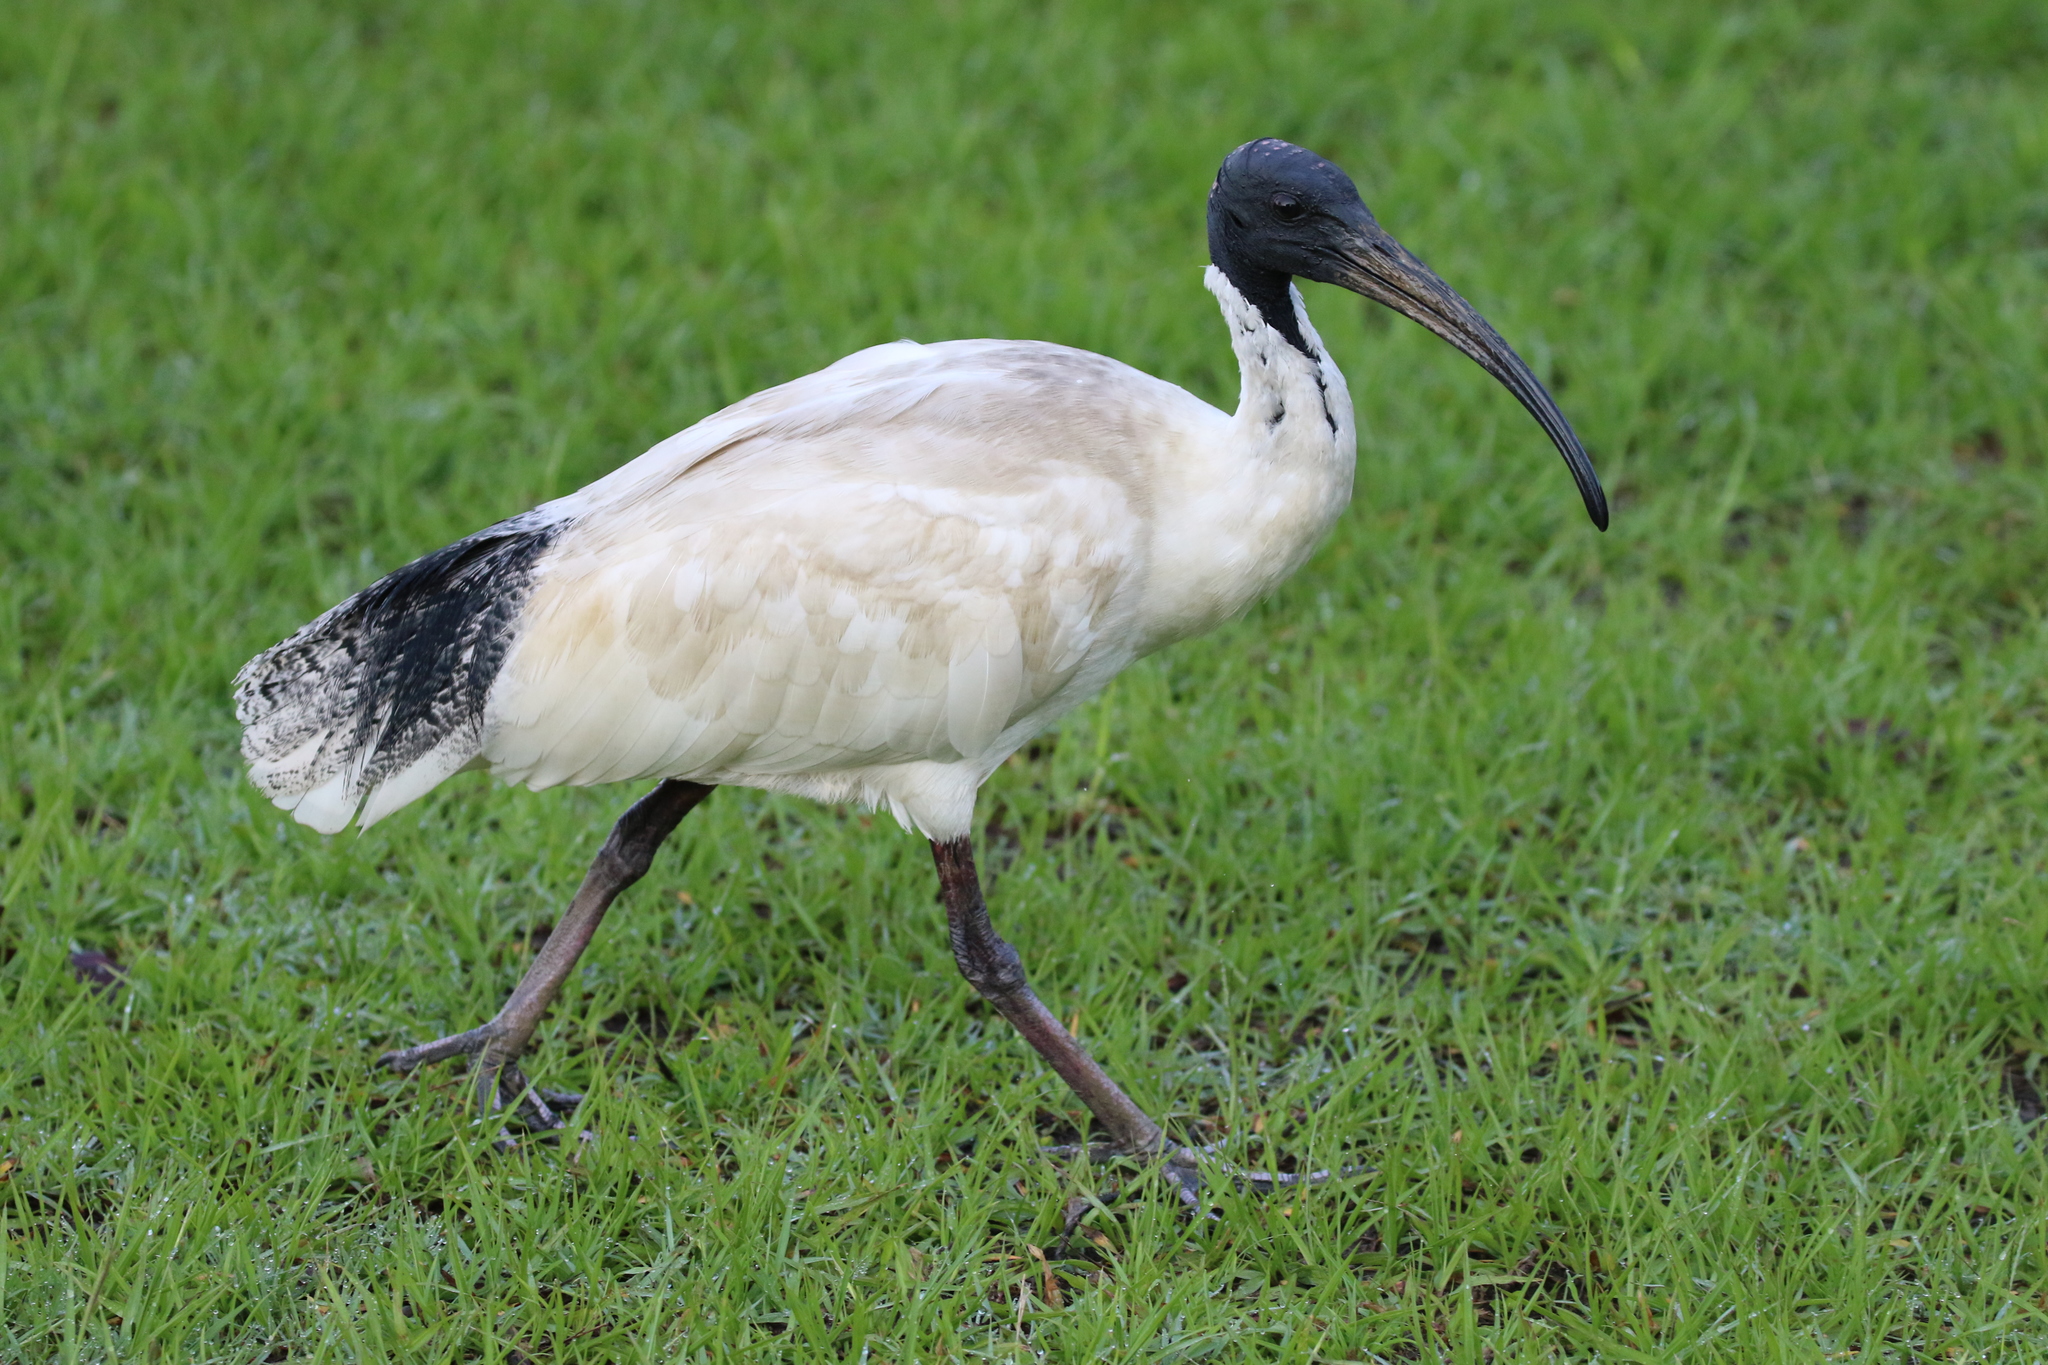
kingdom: Animalia
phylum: Chordata
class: Aves
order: Pelecaniformes
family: Threskiornithidae
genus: Threskiornis
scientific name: Threskiornis molucca
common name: Australian white ibis
